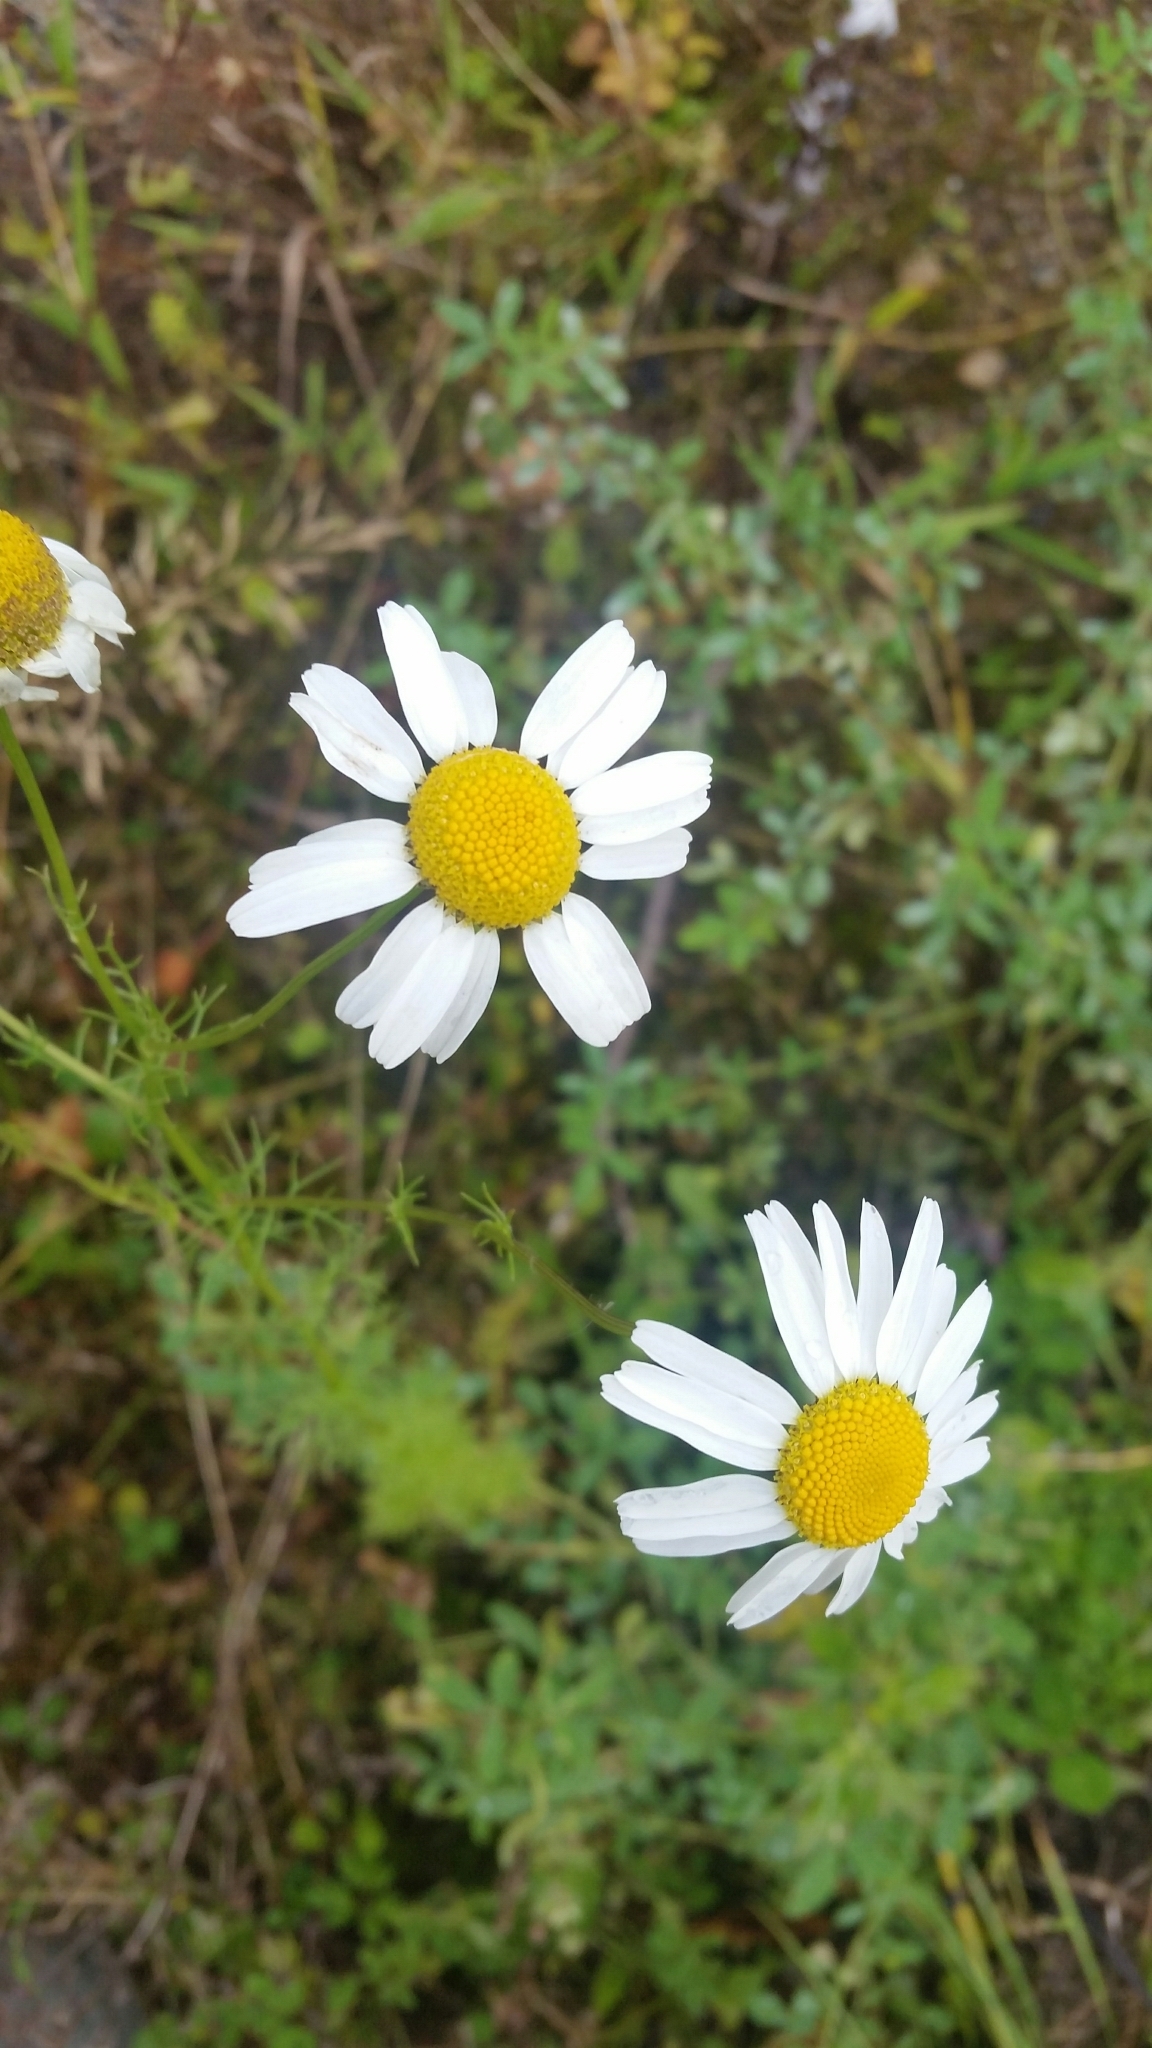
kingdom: Plantae
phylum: Tracheophyta
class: Magnoliopsida
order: Asterales
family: Asteraceae
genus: Tripleurospermum
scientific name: Tripleurospermum inodorum
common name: Scentless mayweed
